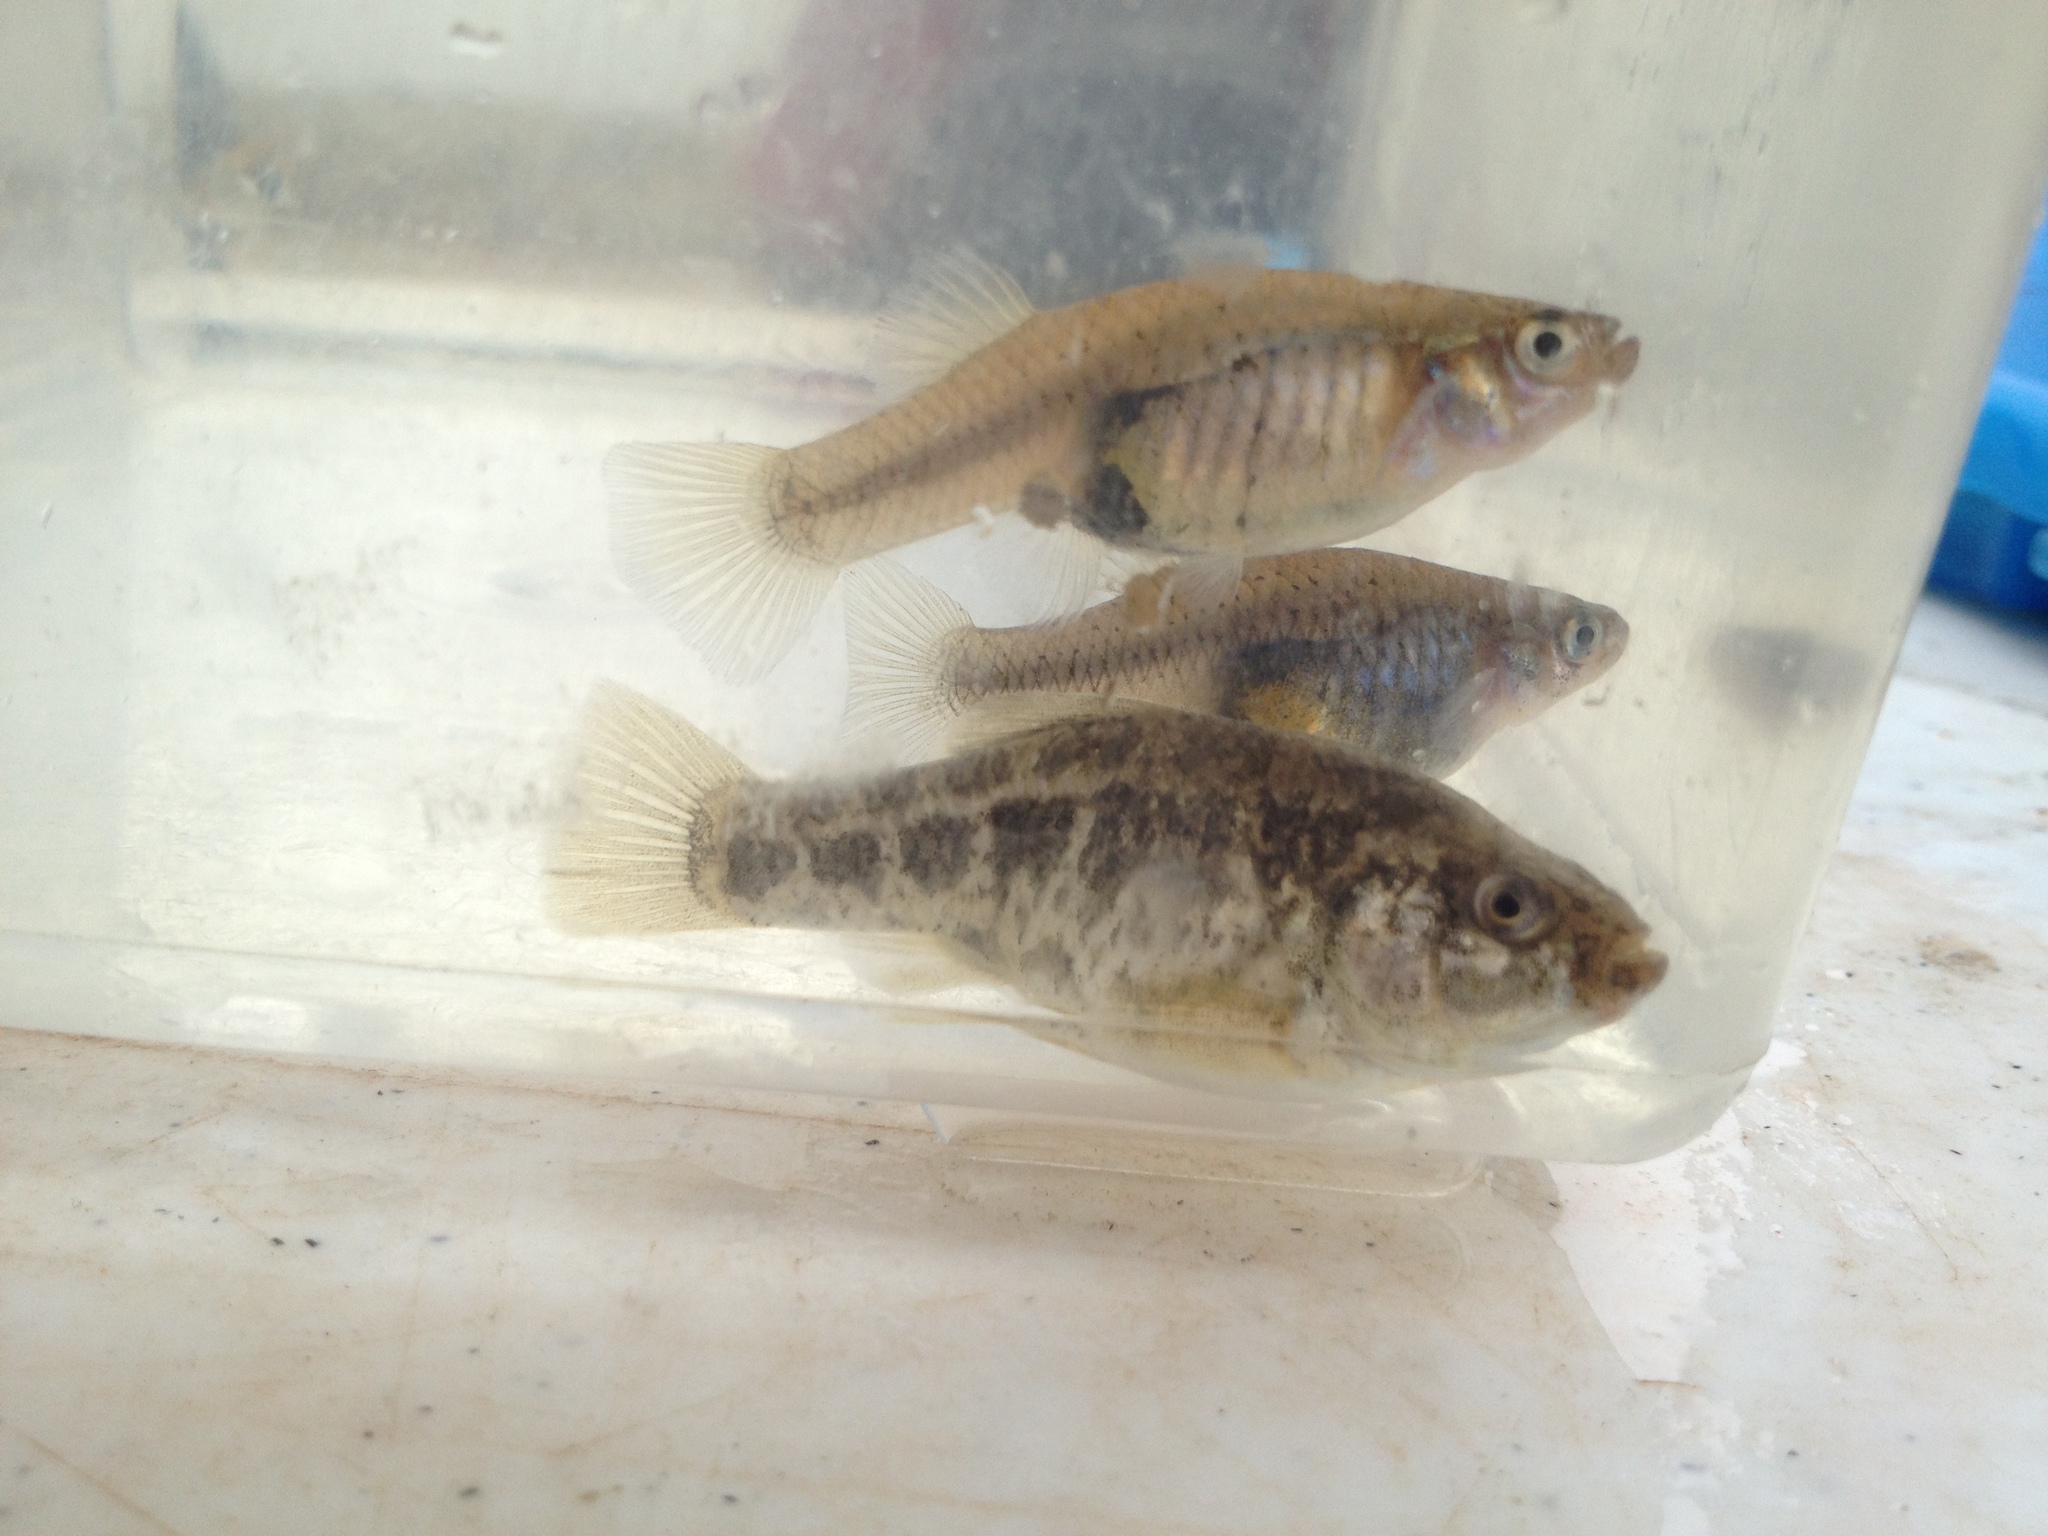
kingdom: Animalia
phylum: Chordata
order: Cyprinodontiformes
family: Cyprinodontidae
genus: Cyprinodon
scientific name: Cyprinodon pecosensis
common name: Pecos pupfish
